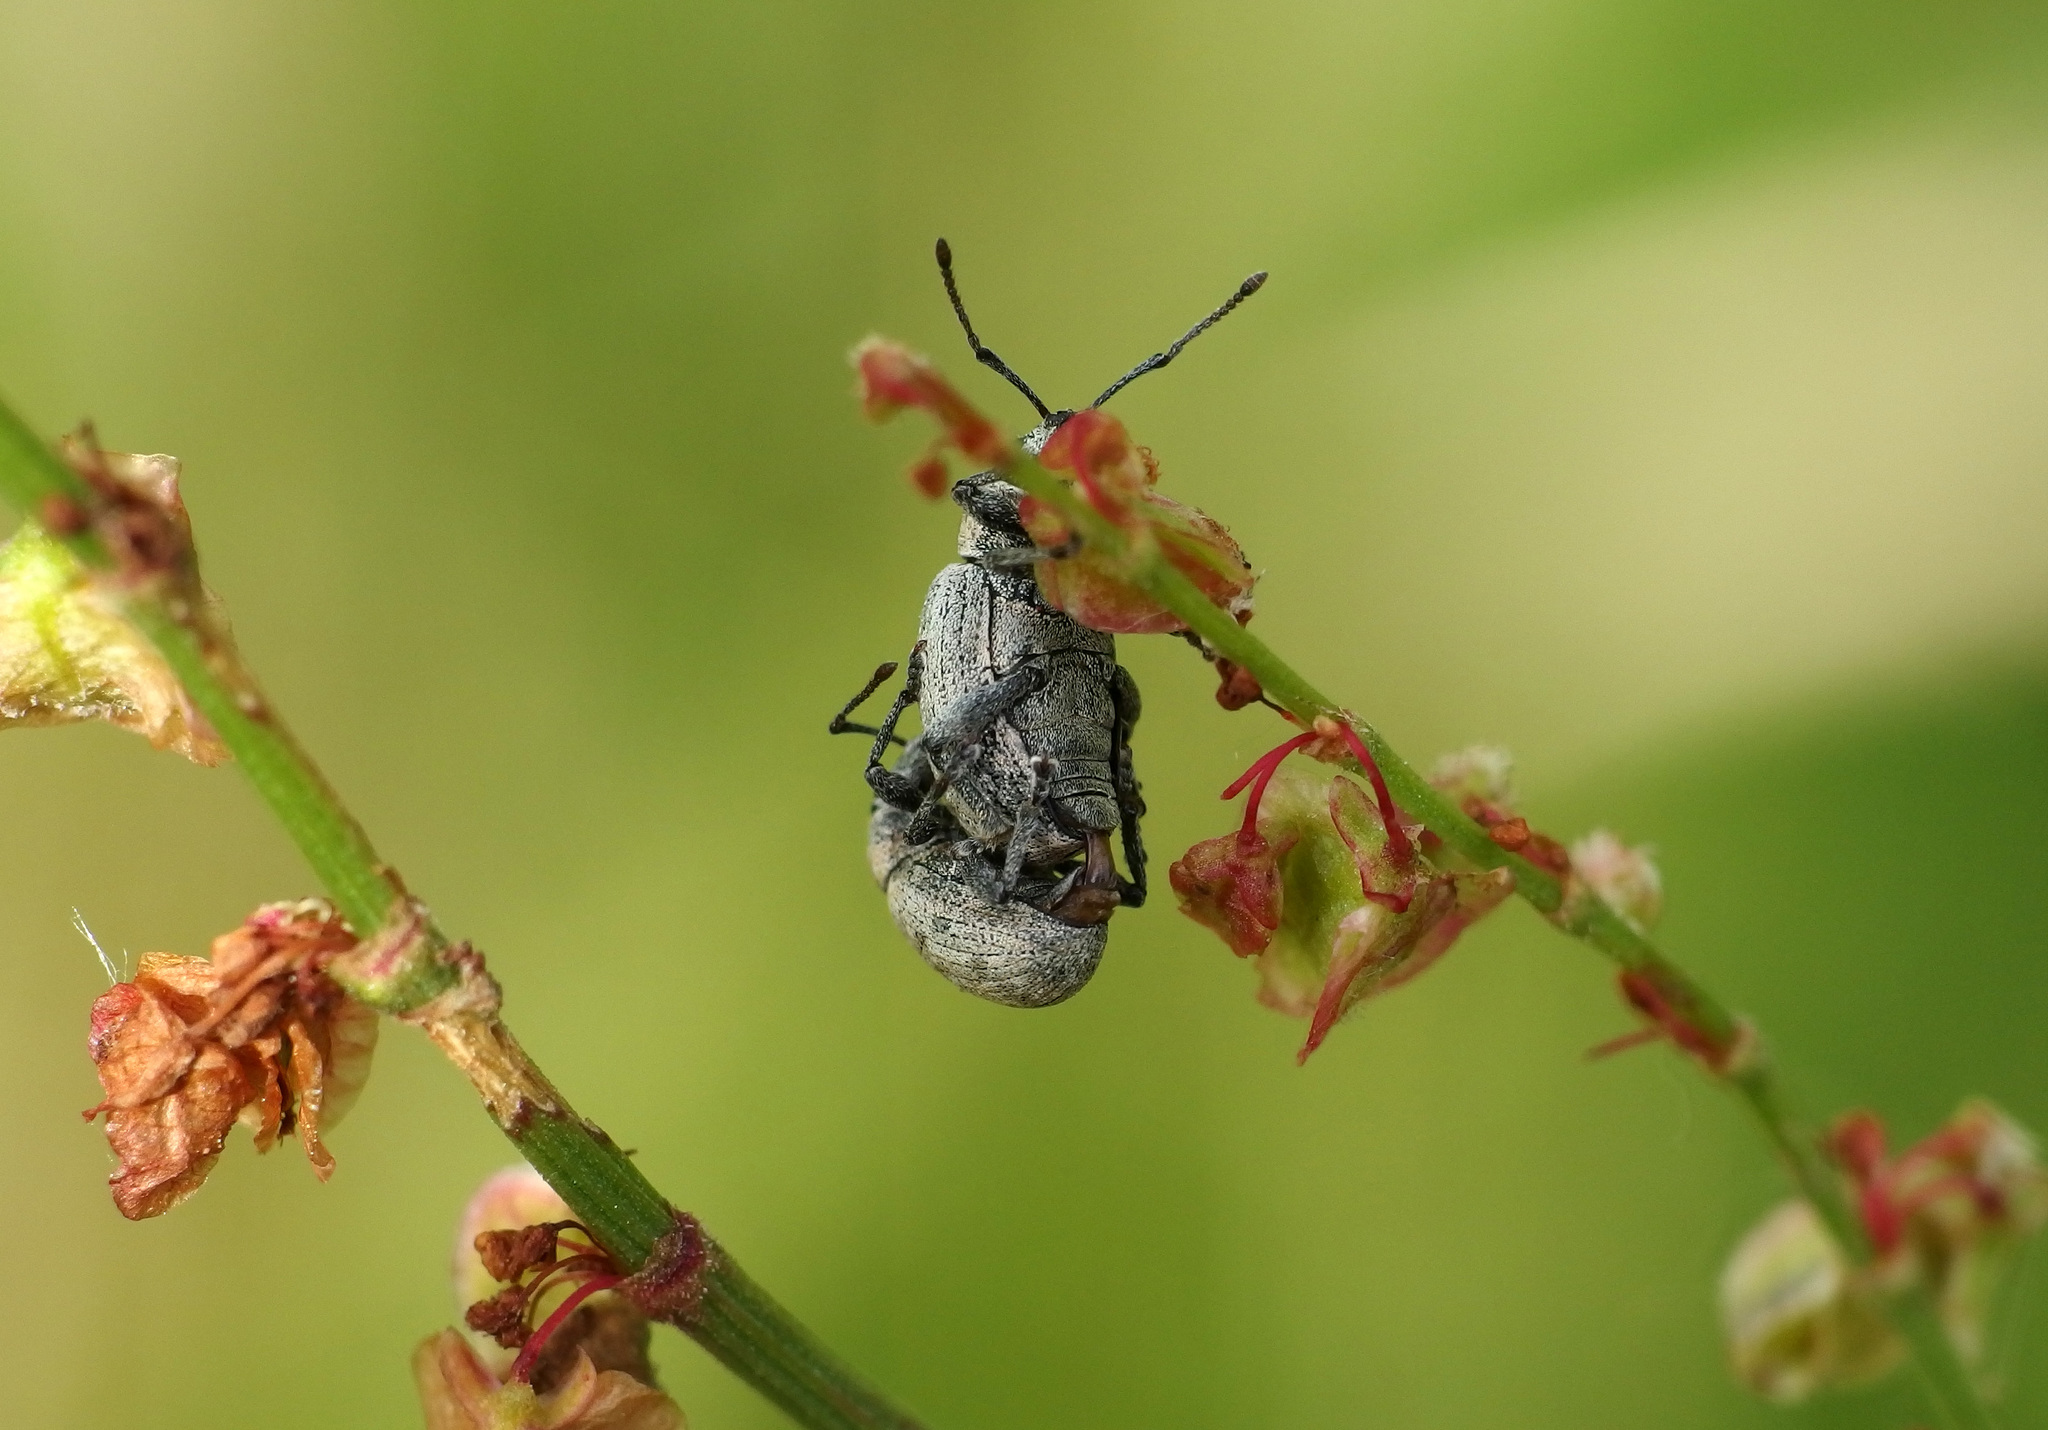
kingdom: Animalia
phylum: Arthropoda
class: Insecta
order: Coleoptera
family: Curculionidae
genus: Peritelus
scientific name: Peritelus sphaeroides
